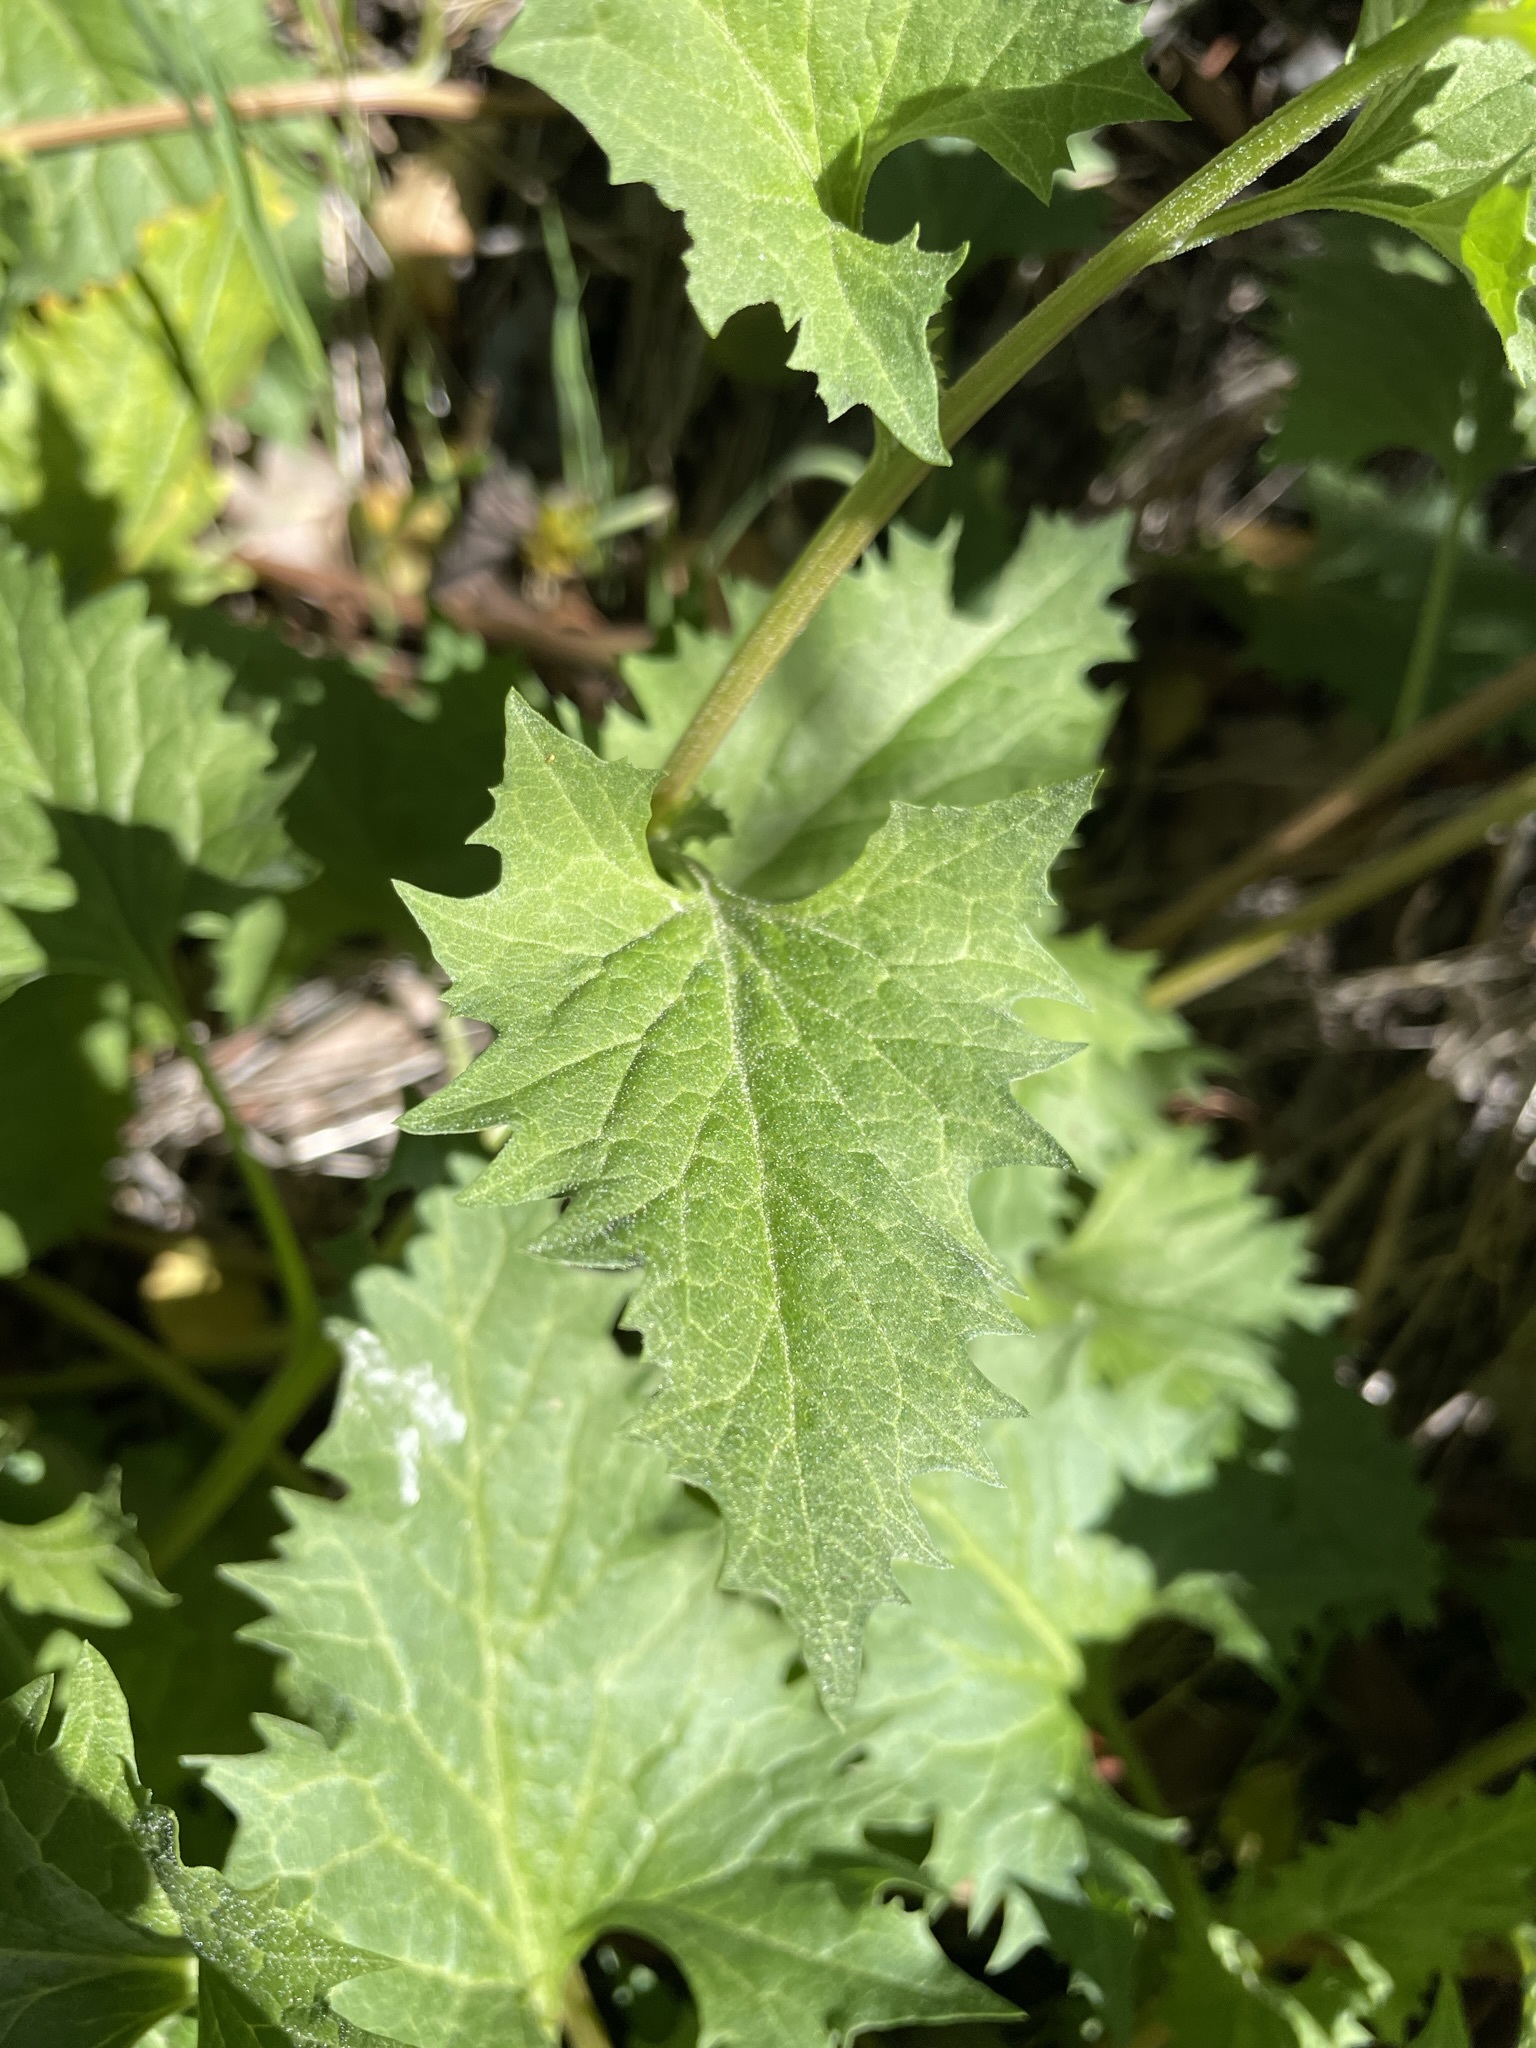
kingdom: Plantae
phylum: Tracheophyta
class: Magnoliopsida
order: Caryophyllales
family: Amaranthaceae
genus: Blitum
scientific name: Blitum californicum
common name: California goosefoot
